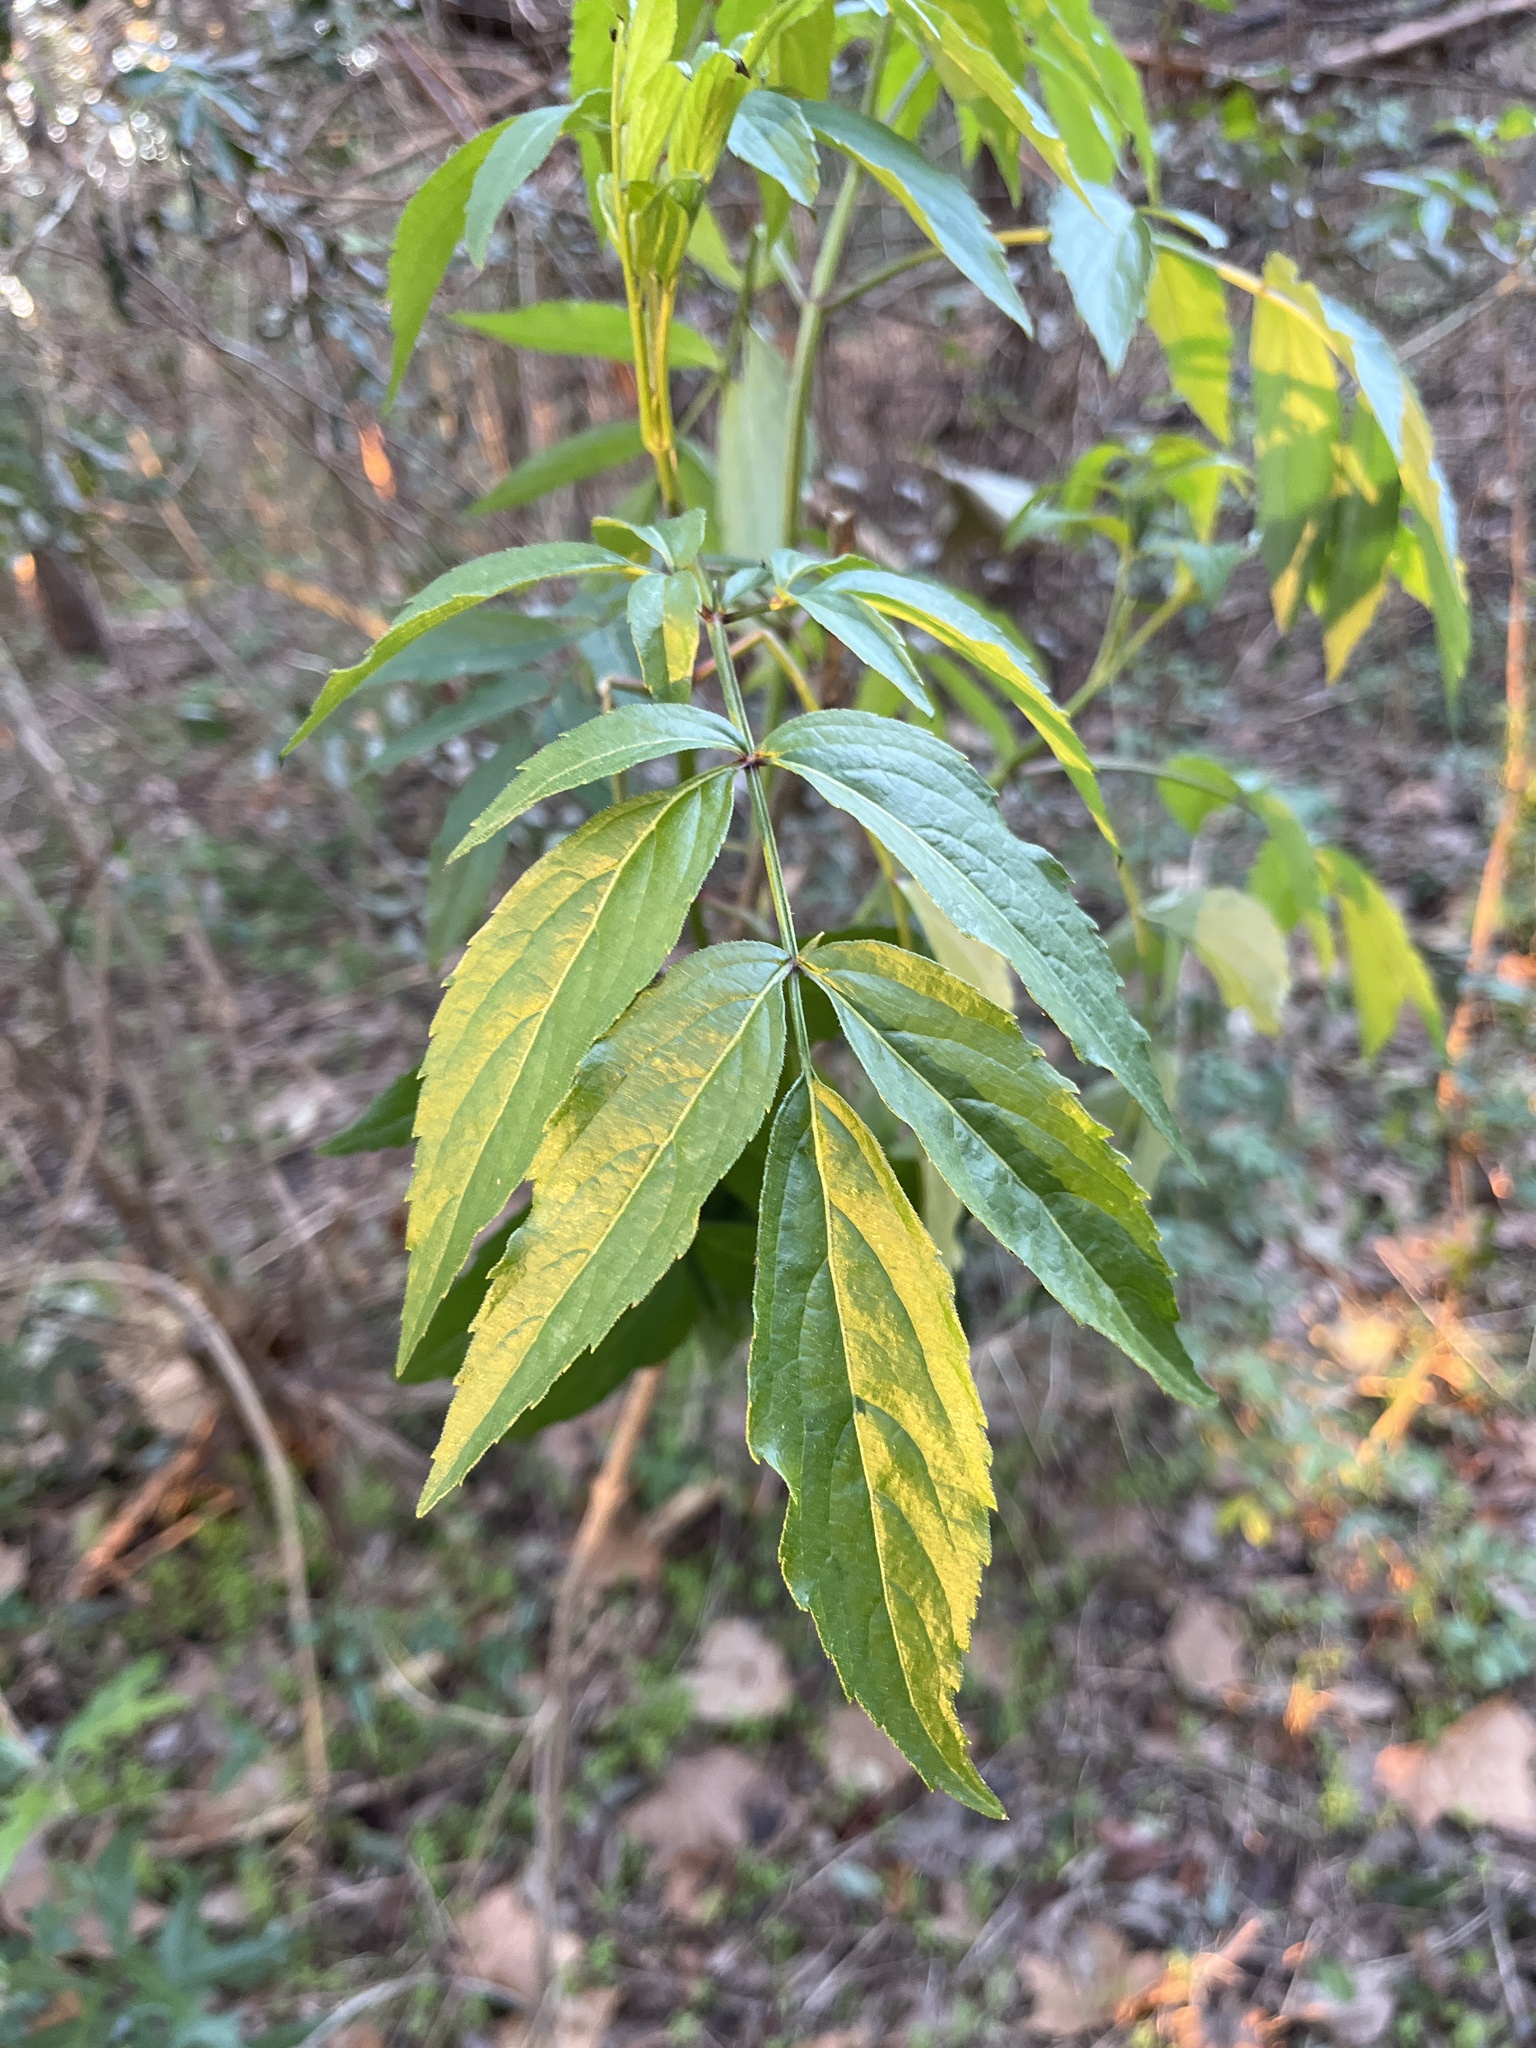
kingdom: Plantae
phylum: Tracheophyta
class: Magnoliopsida
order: Dipsacales
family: Viburnaceae
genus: Sambucus
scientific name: Sambucus canadensis
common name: American elder
